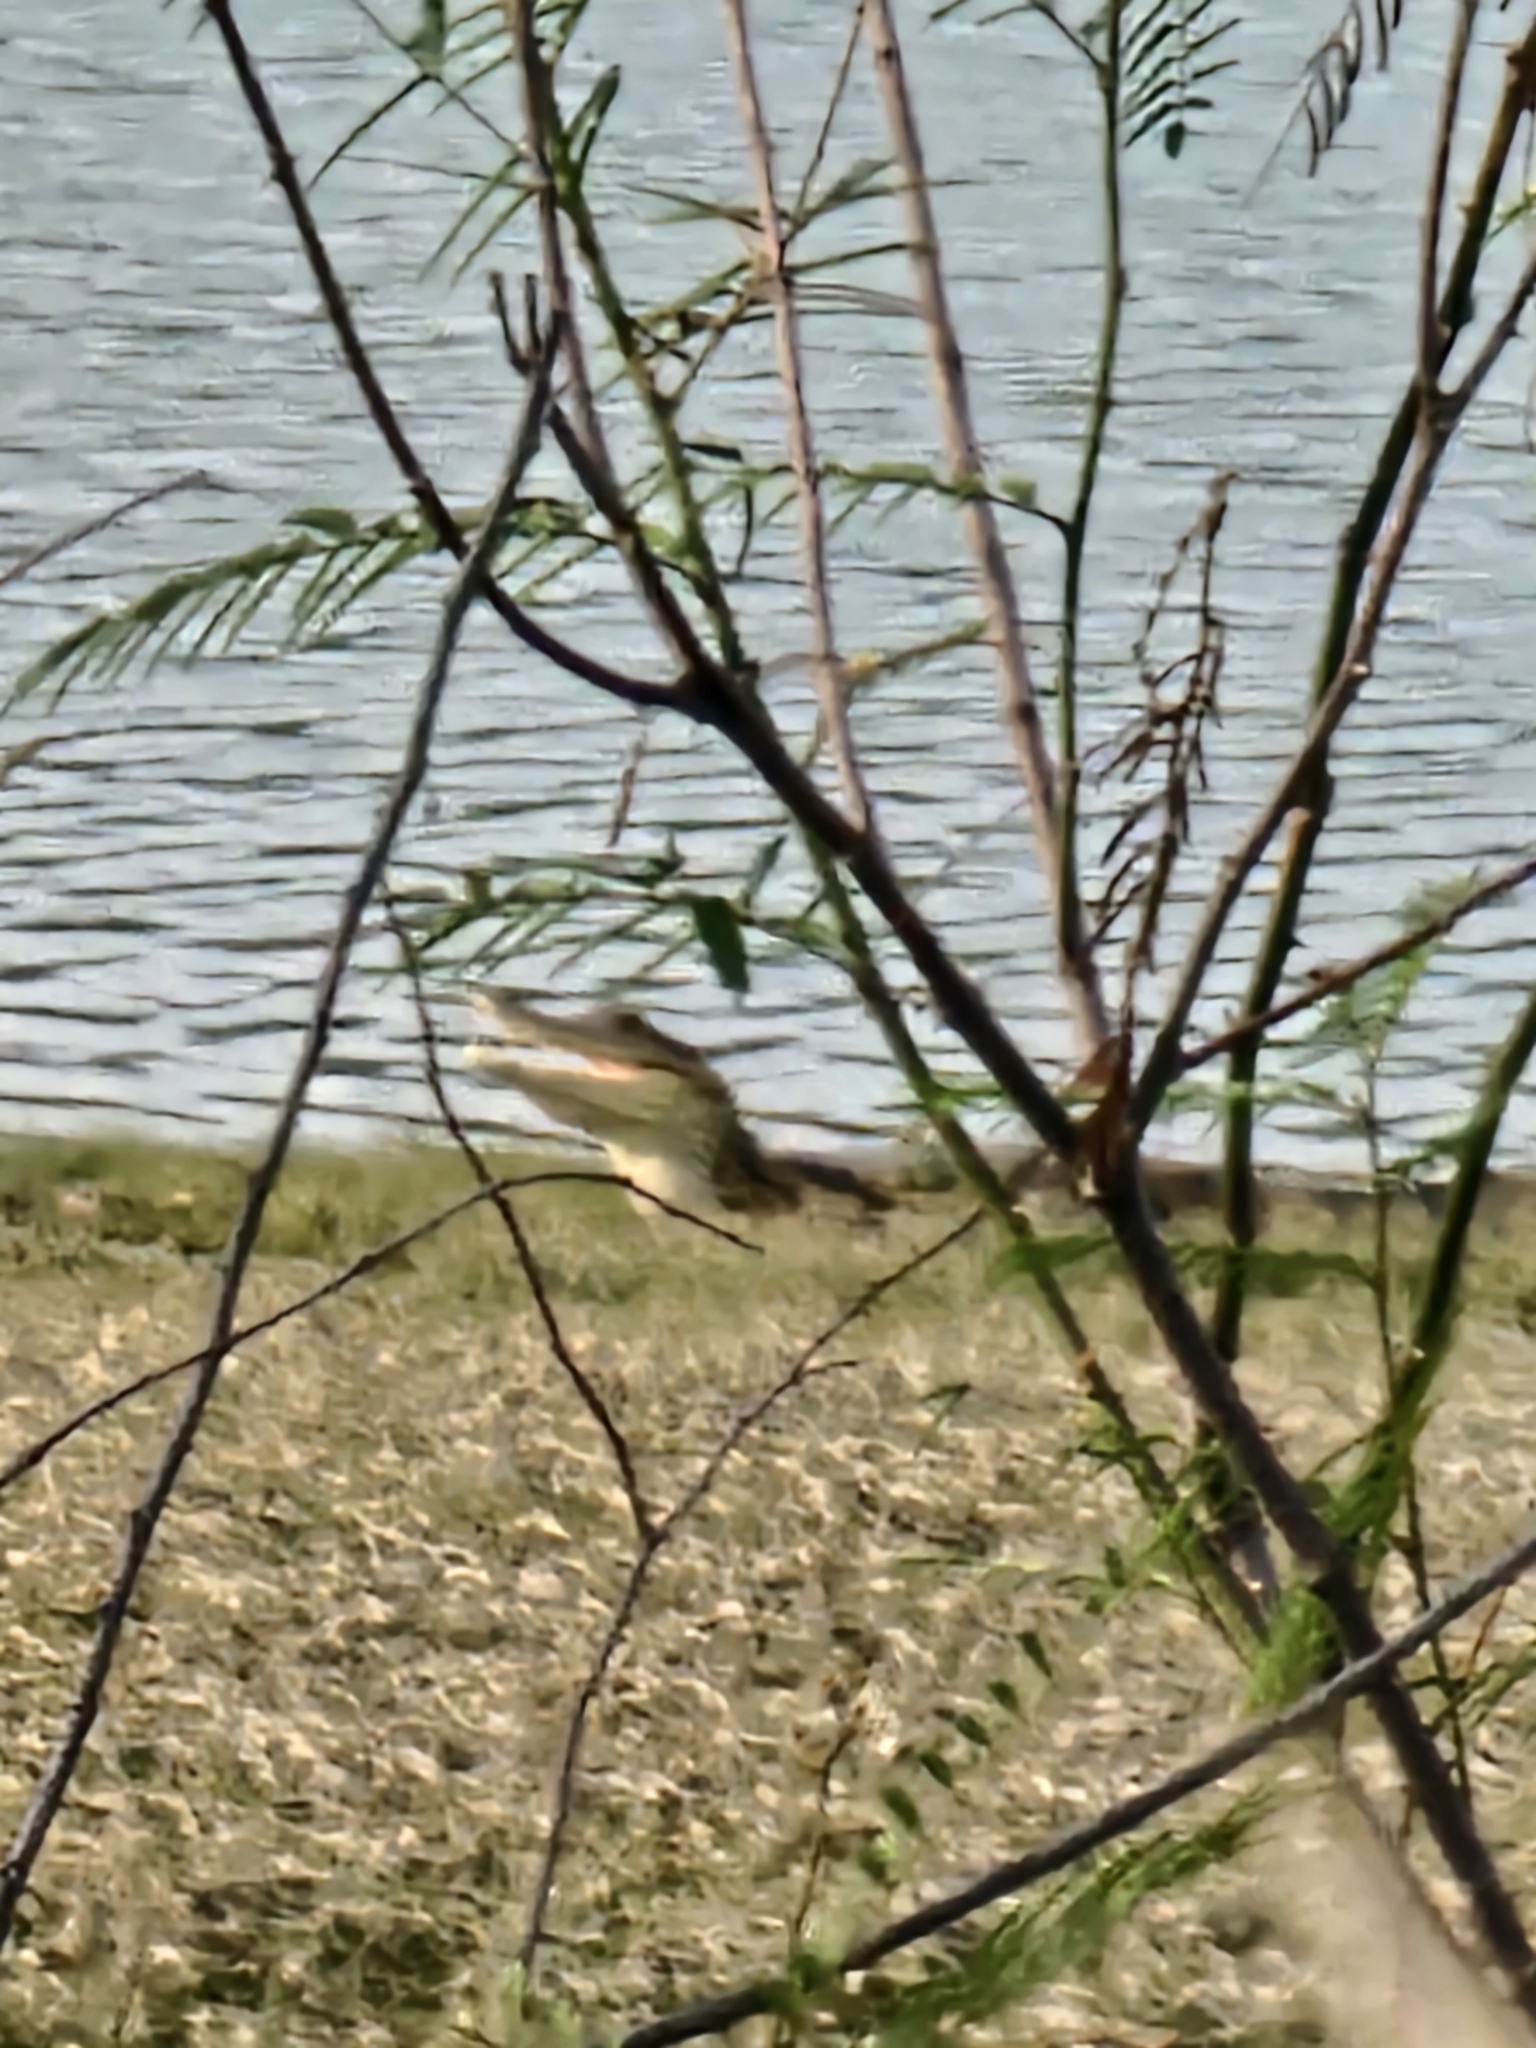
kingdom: Animalia
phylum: Chordata
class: Crocodylia
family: Alligatoridae
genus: Caiman
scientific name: Caiman crocodilus
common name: Common caiman
